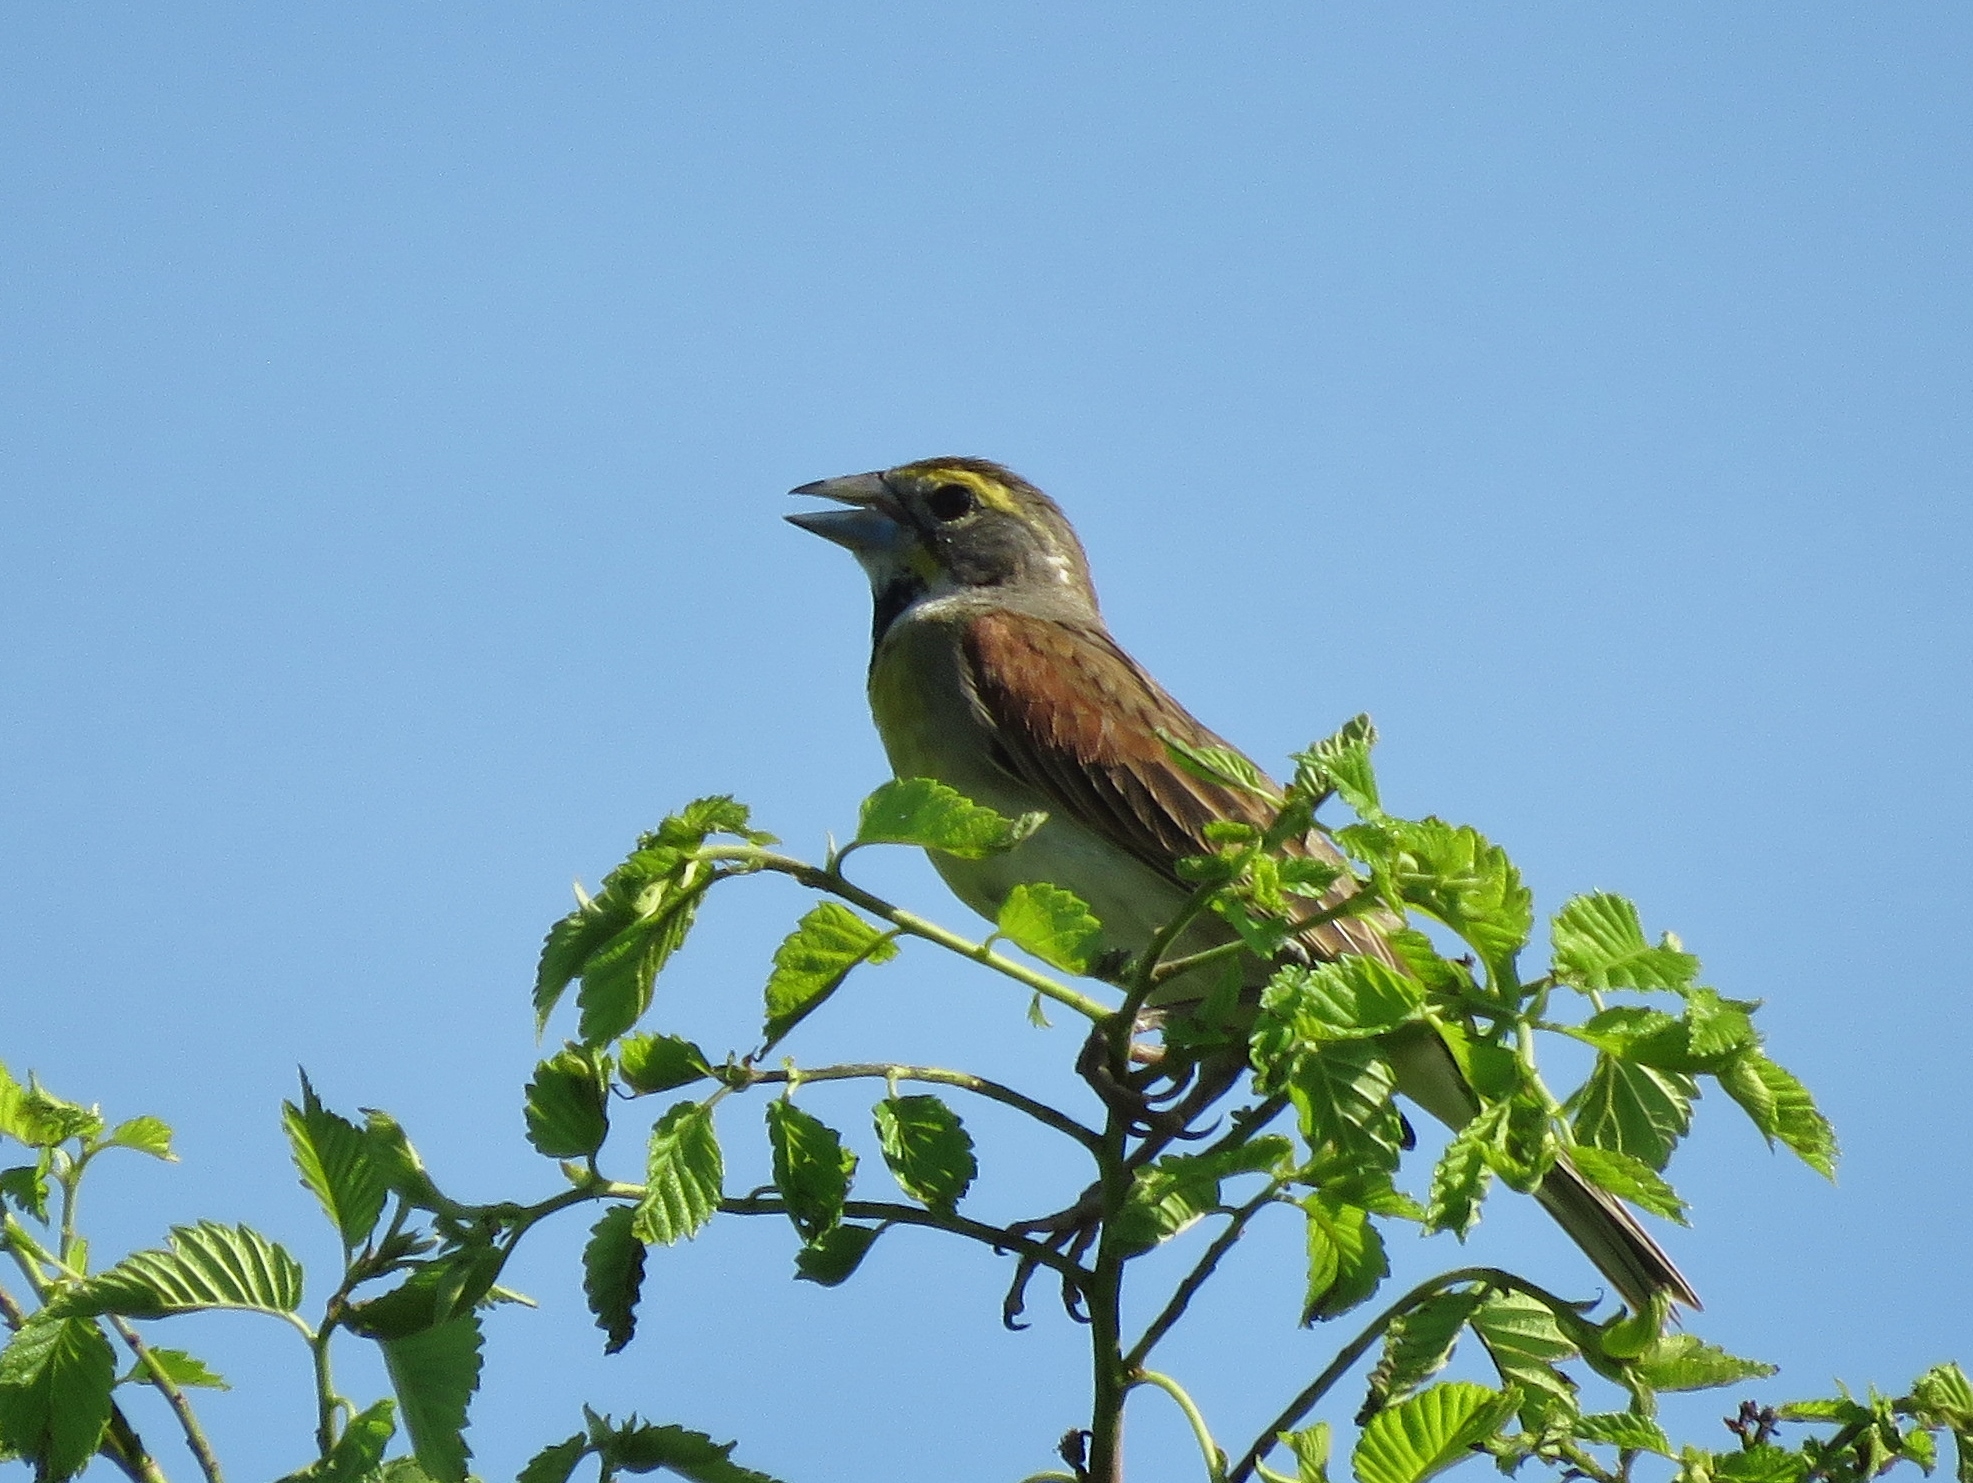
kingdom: Animalia
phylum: Chordata
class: Aves
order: Passeriformes
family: Cardinalidae
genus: Spiza
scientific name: Spiza americana
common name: Dickcissel
